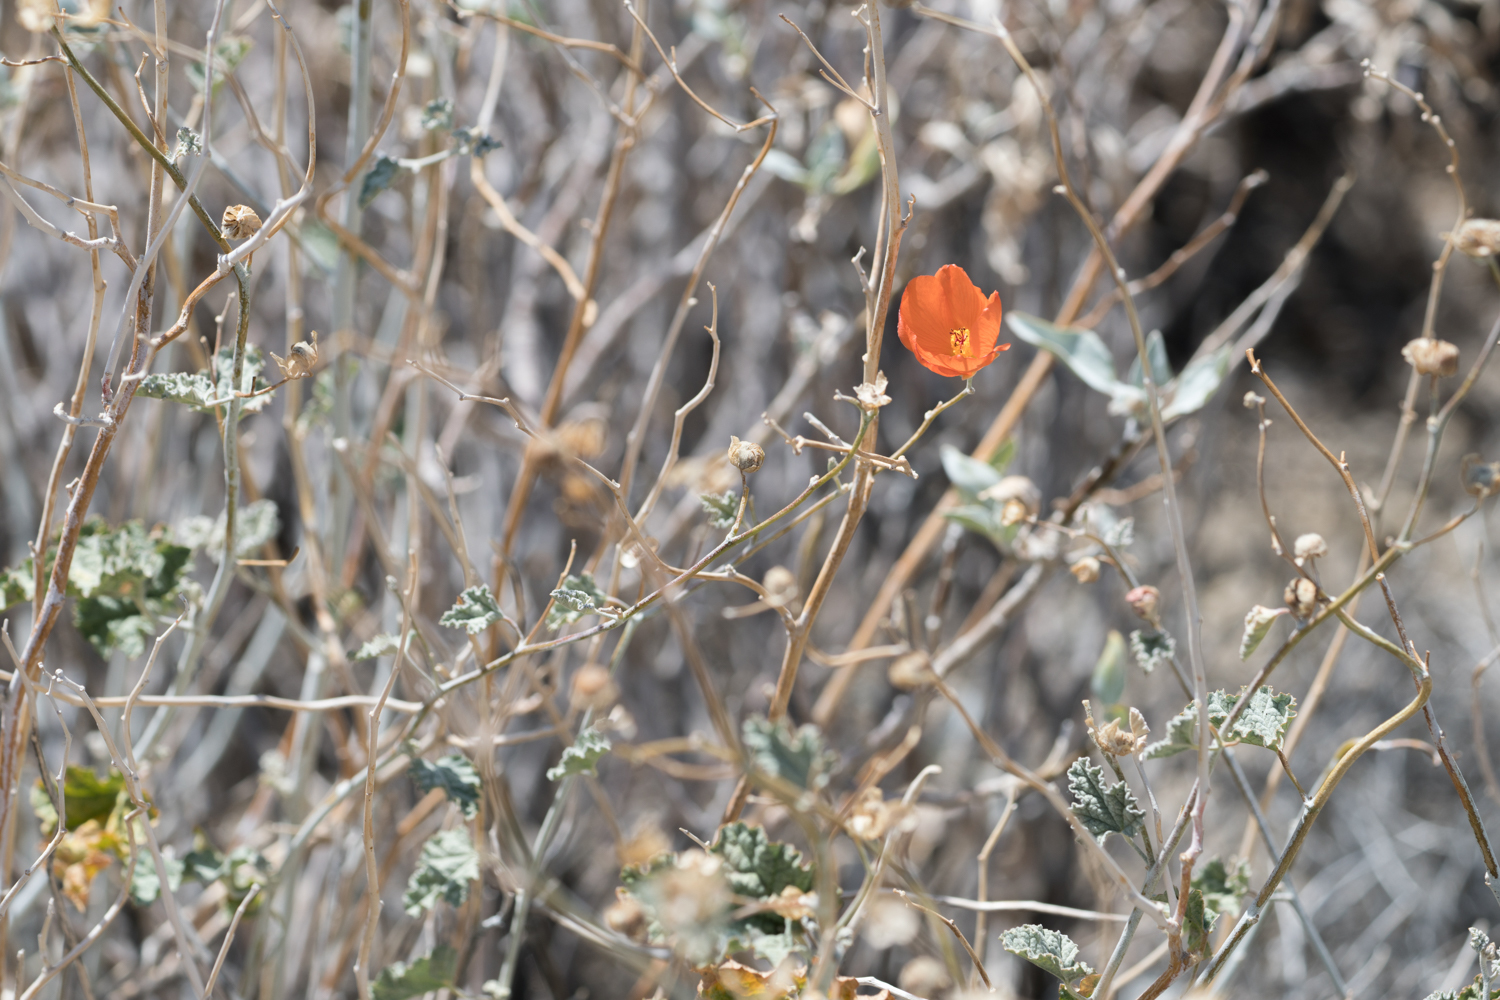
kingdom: Plantae
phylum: Tracheophyta
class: Magnoliopsida
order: Malvales
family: Malvaceae
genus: Sphaeralcea
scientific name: Sphaeralcea ambigua
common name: Apricot globe-mallow
